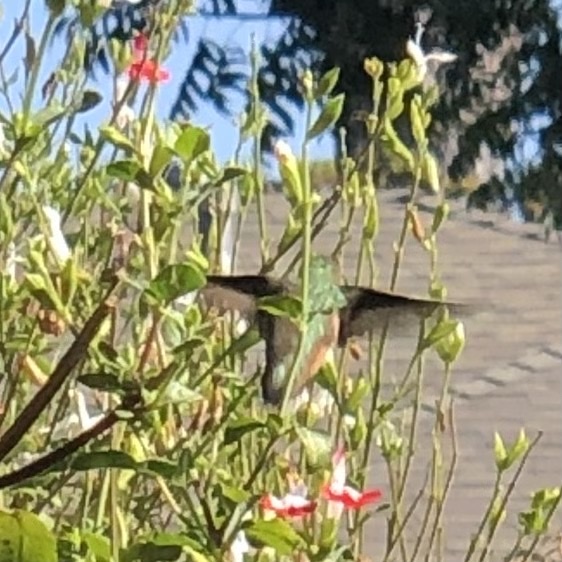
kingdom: Animalia
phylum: Chordata
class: Aves
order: Apodiformes
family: Trochilidae
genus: Selasphorus
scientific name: Selasphorus
